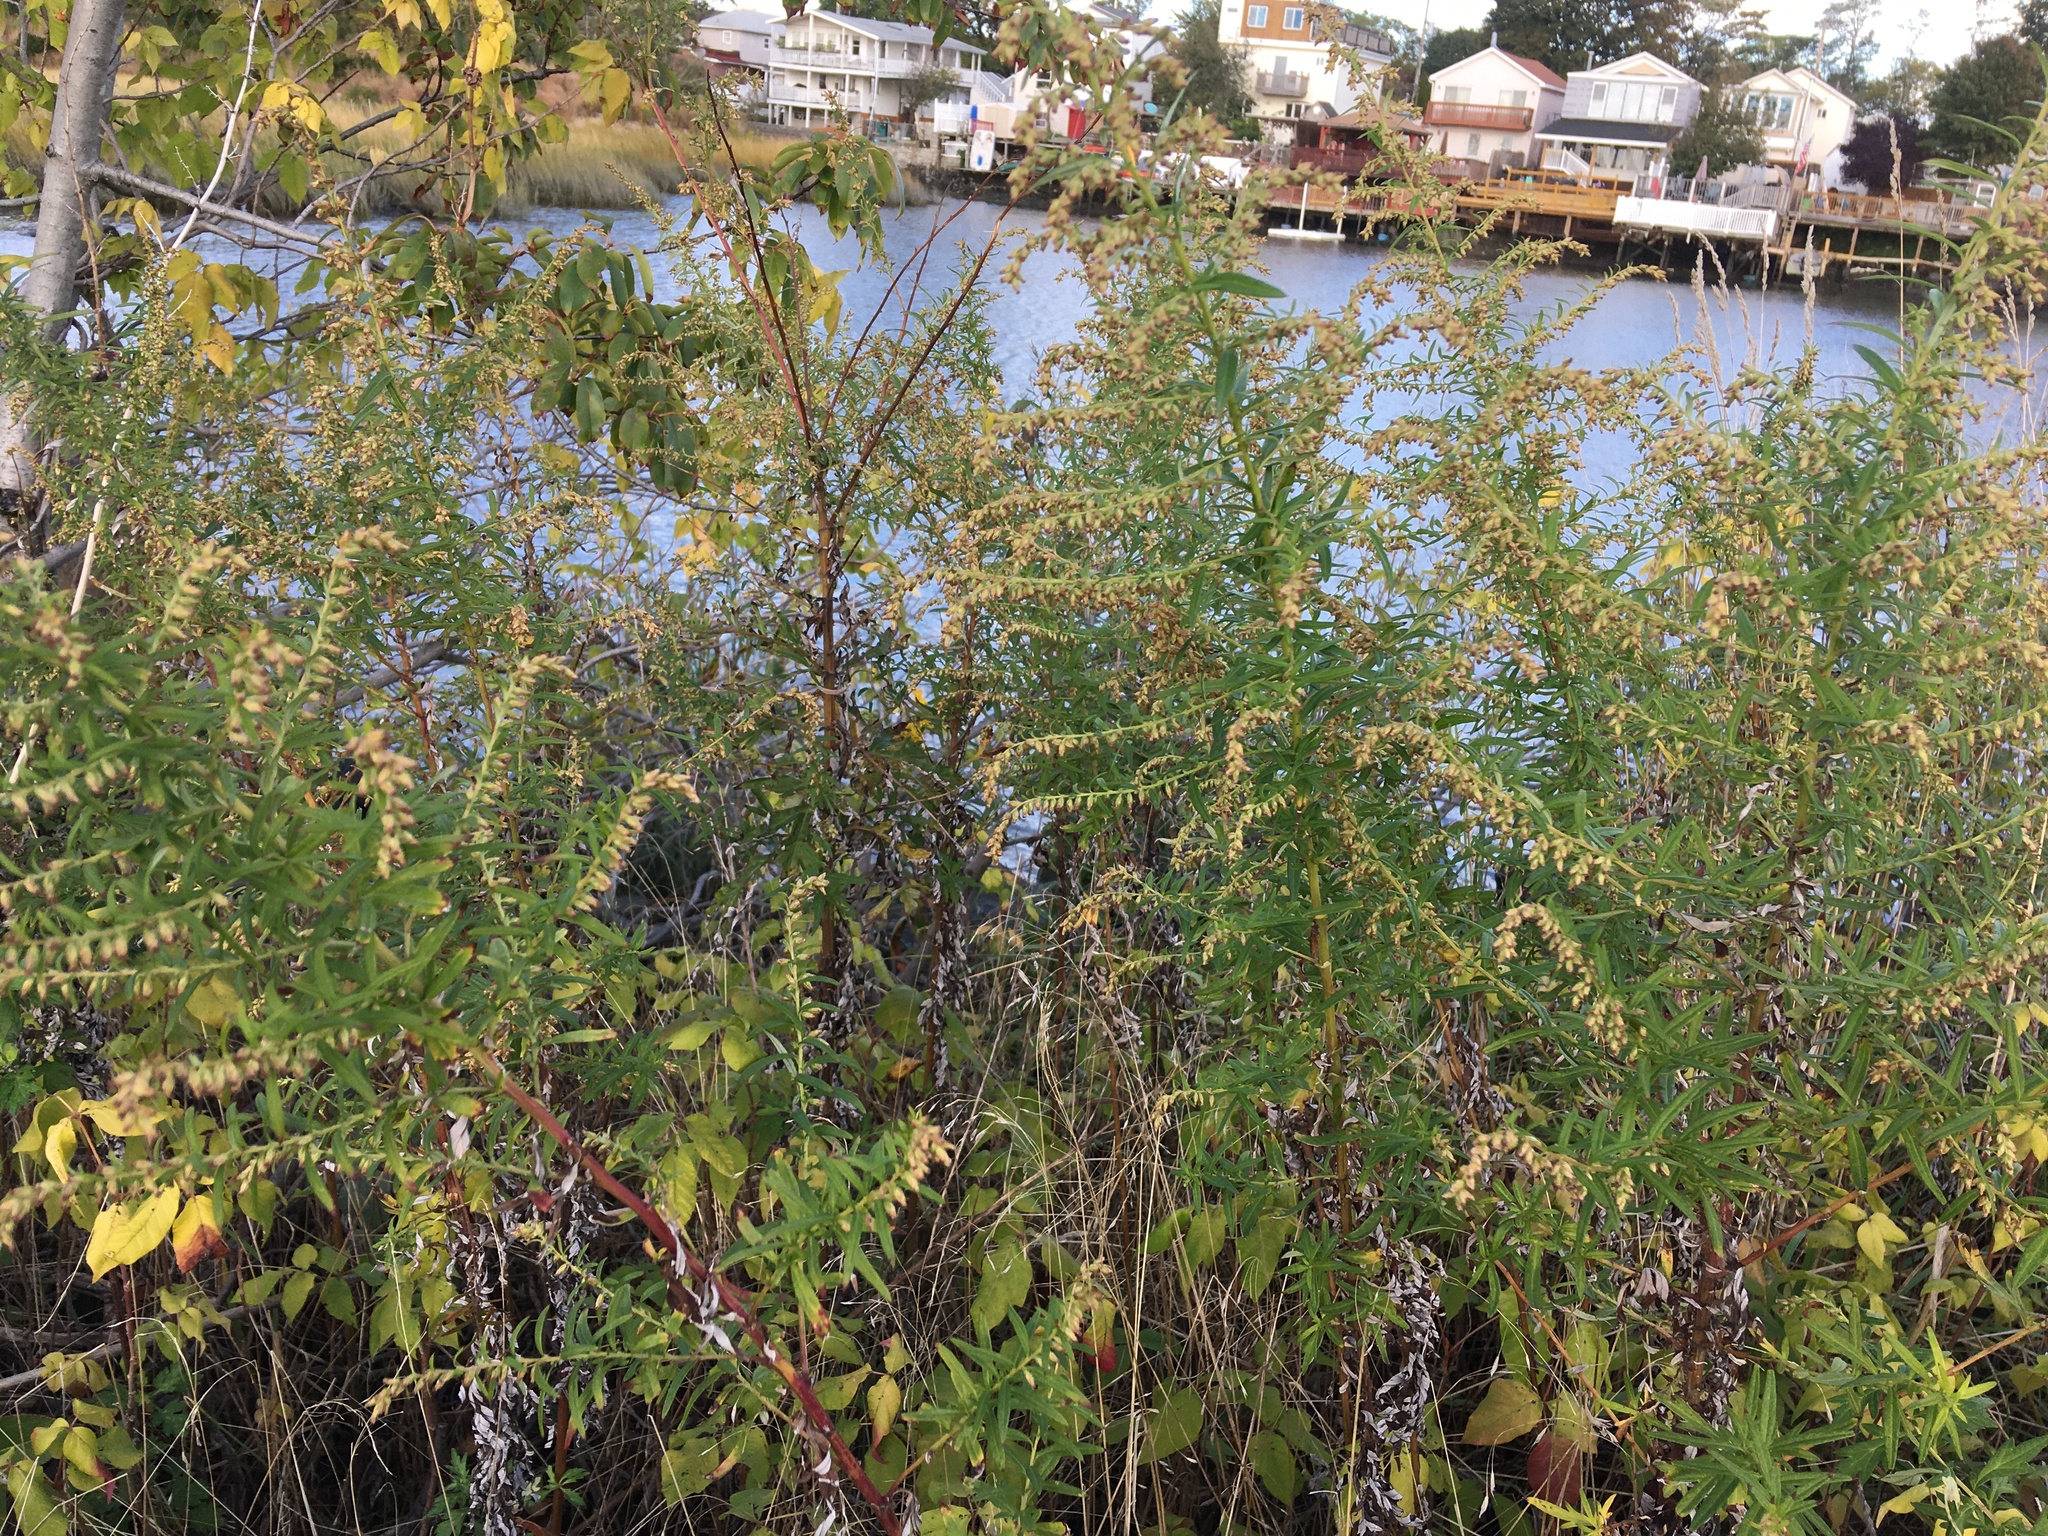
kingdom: Plantae
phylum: Tracheophyta
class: Magnoliopsida
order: Asterales
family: Asteraceae
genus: Artemisia
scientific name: Artemisia vulgaris
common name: Mugwort
